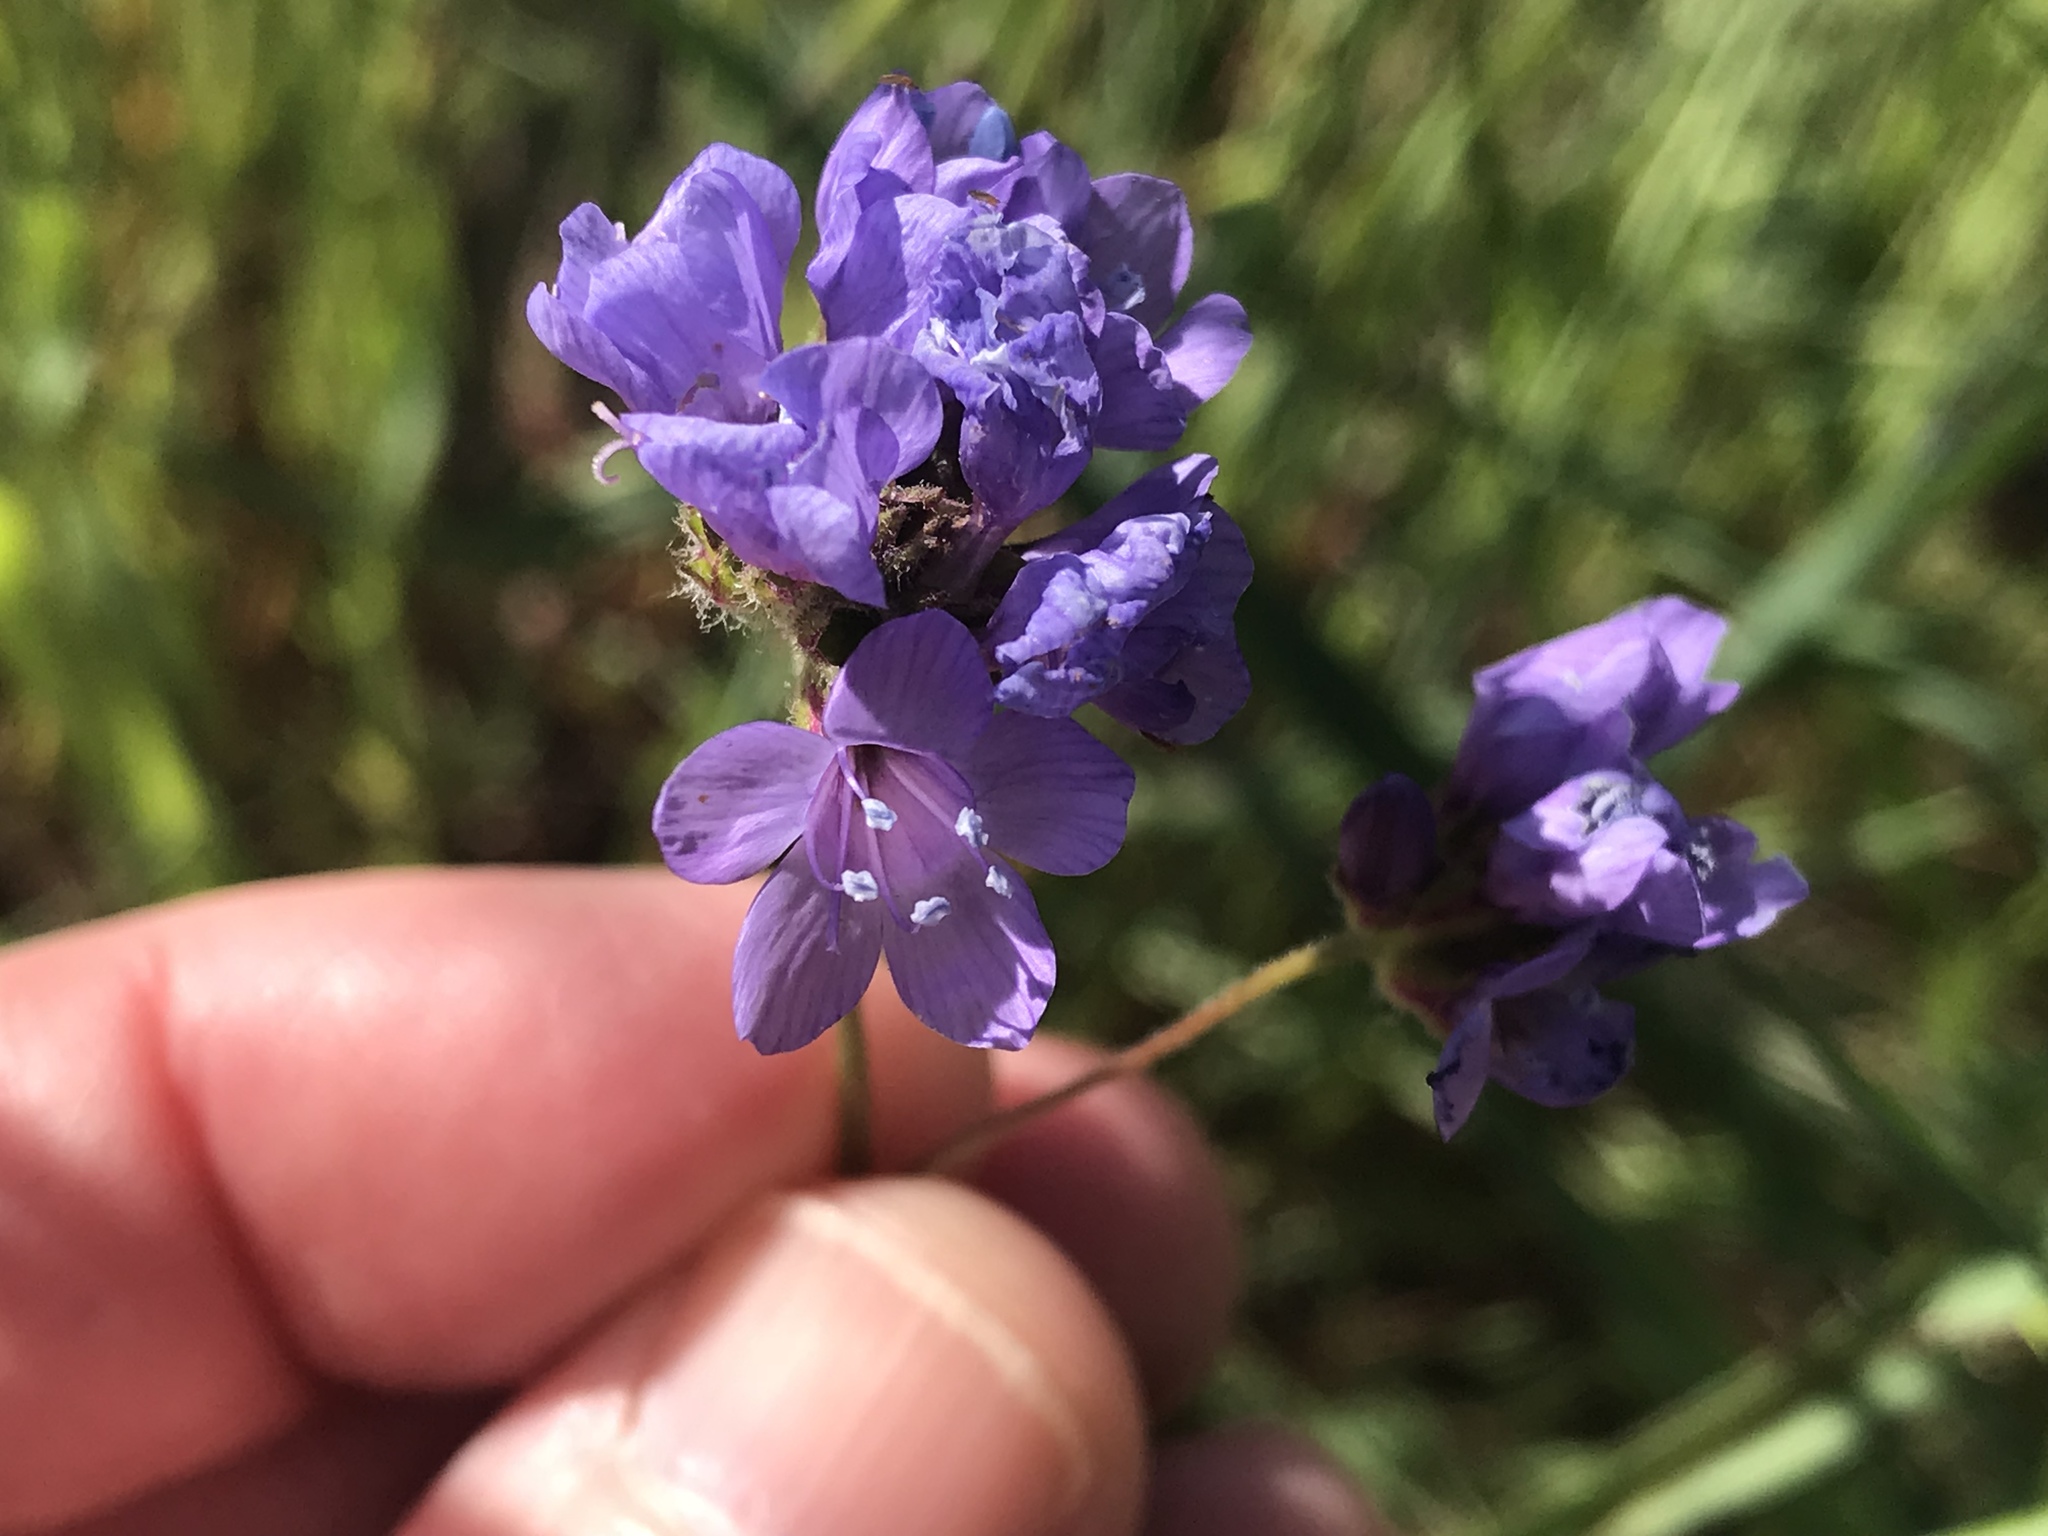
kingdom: Plantae
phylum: Tracheophyta
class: Magnoliopsida
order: Ericales
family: Polemoniaceae
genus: Gilia
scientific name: Gilia achilleifolia
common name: California gily-flower
